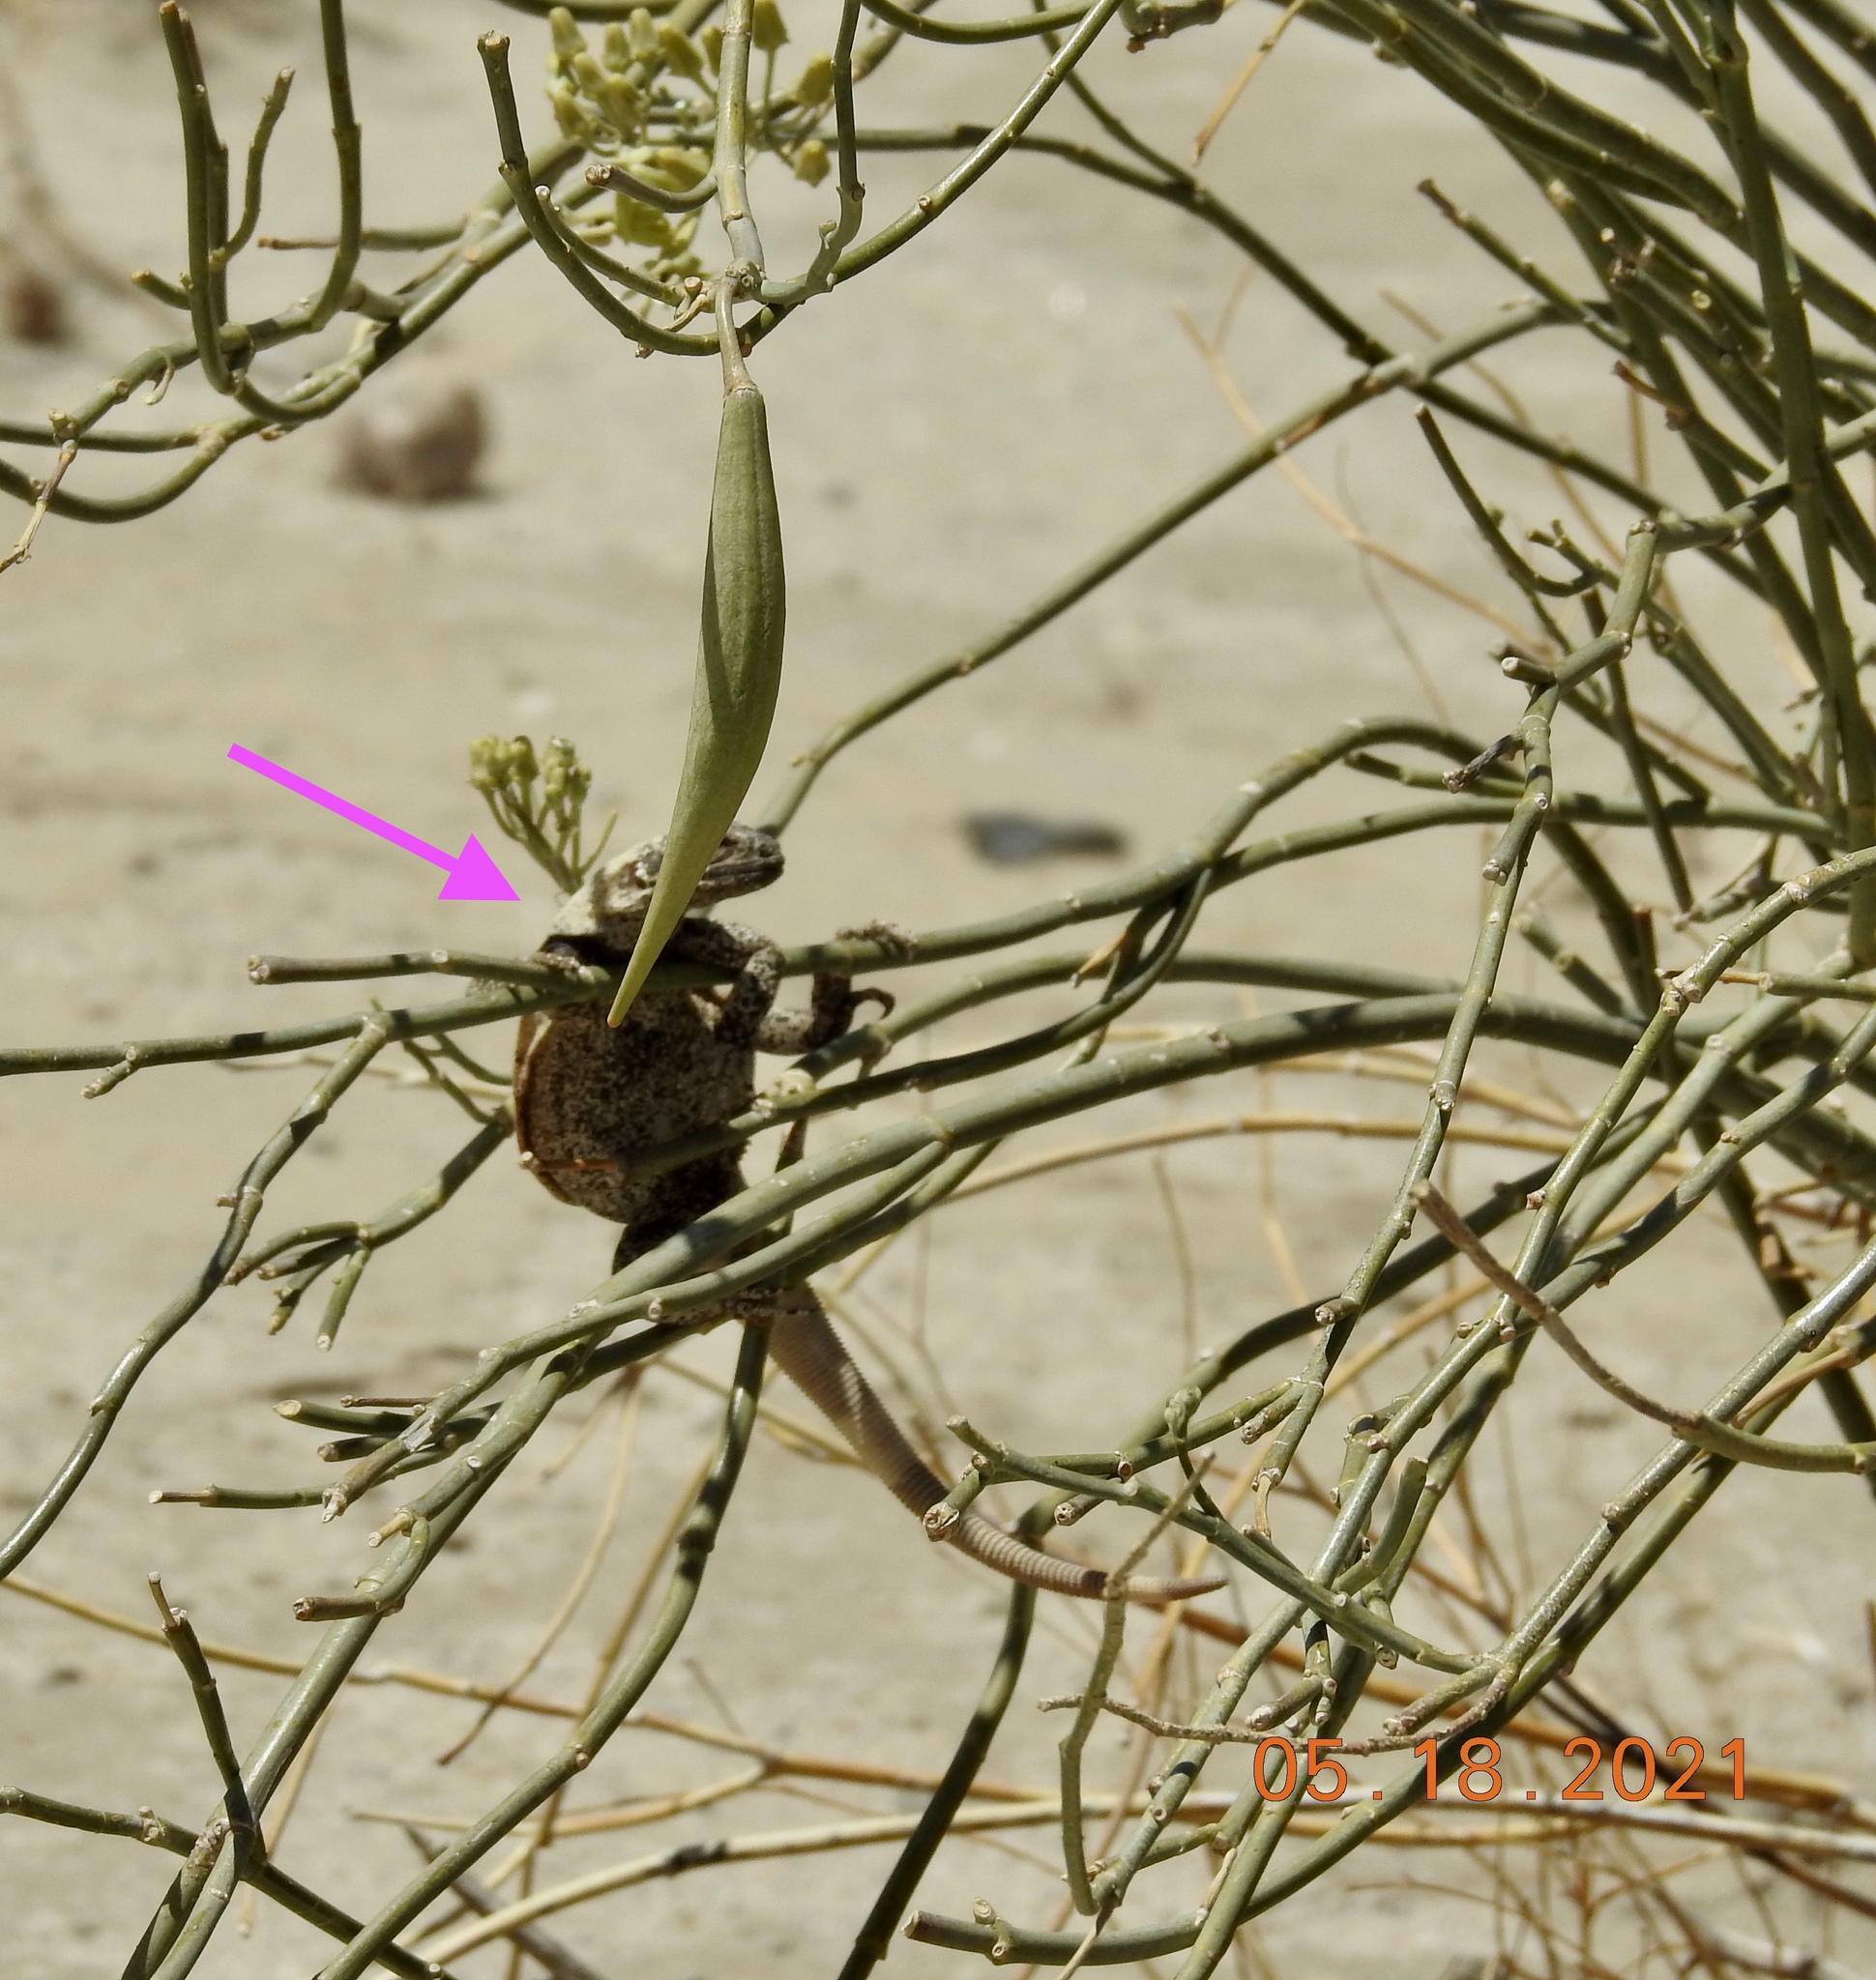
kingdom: Animalia
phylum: Chordata
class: Squamata
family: Iguanidae
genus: Sauromalus
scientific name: Sauromalus ater
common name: Northern chuckwalla
